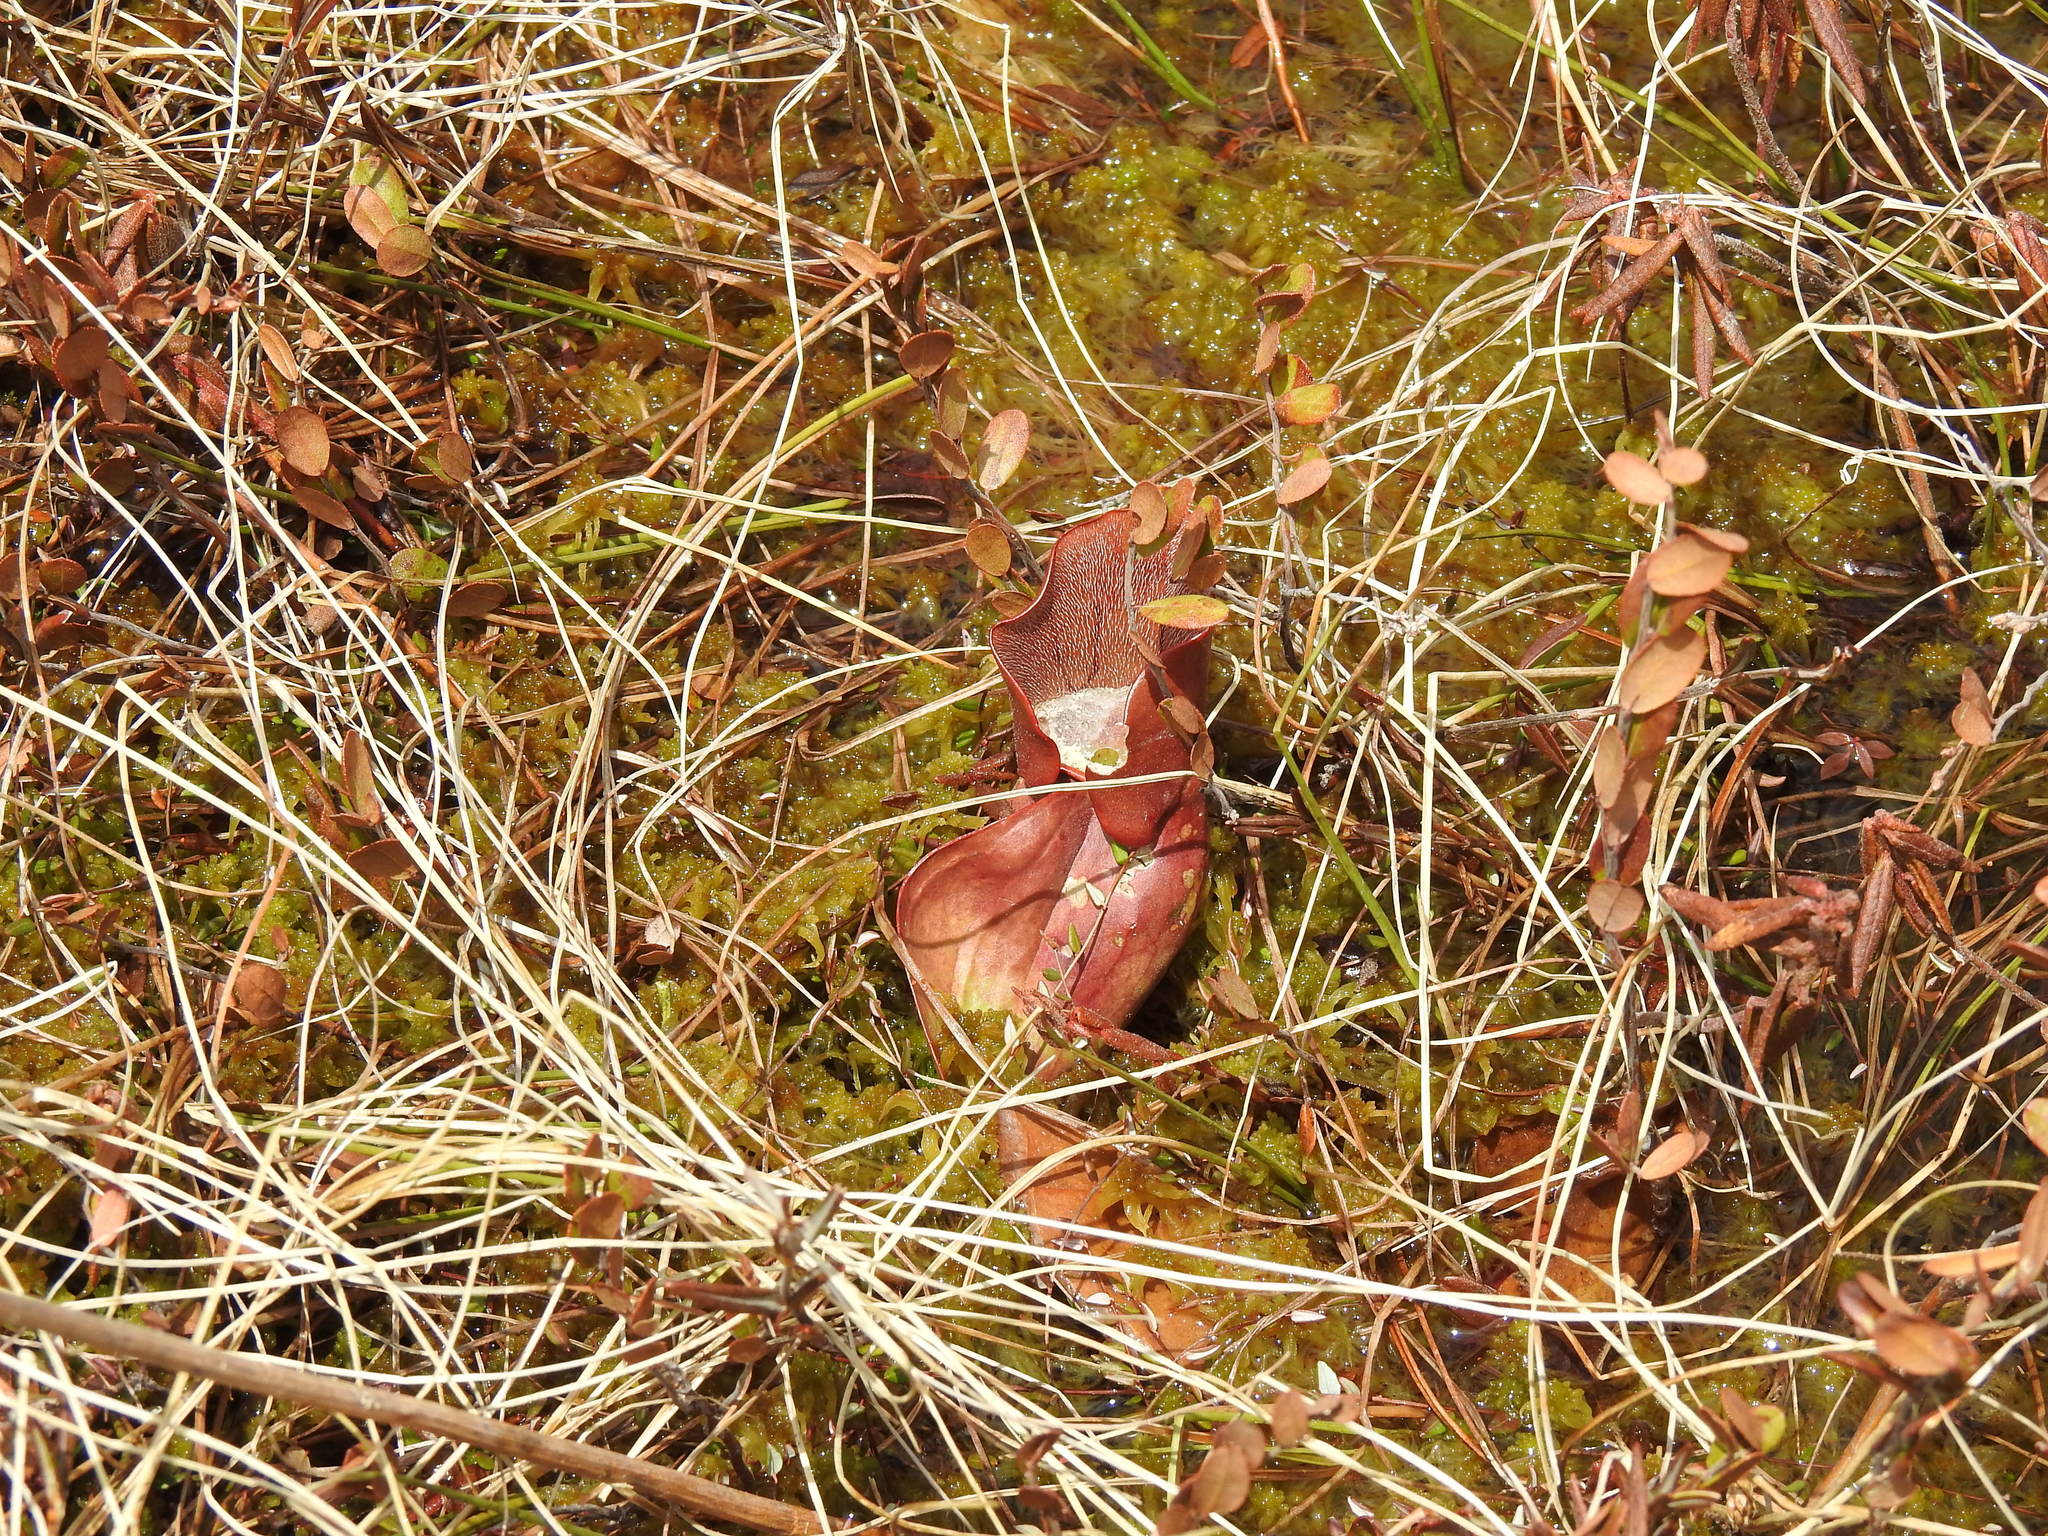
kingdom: Plantae
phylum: Tracheophyta
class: Magnoliopsida
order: Ericales
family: Sarraceniaceae
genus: Sarracenia
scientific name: Sarracenia purpurea
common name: Pitcherplant
